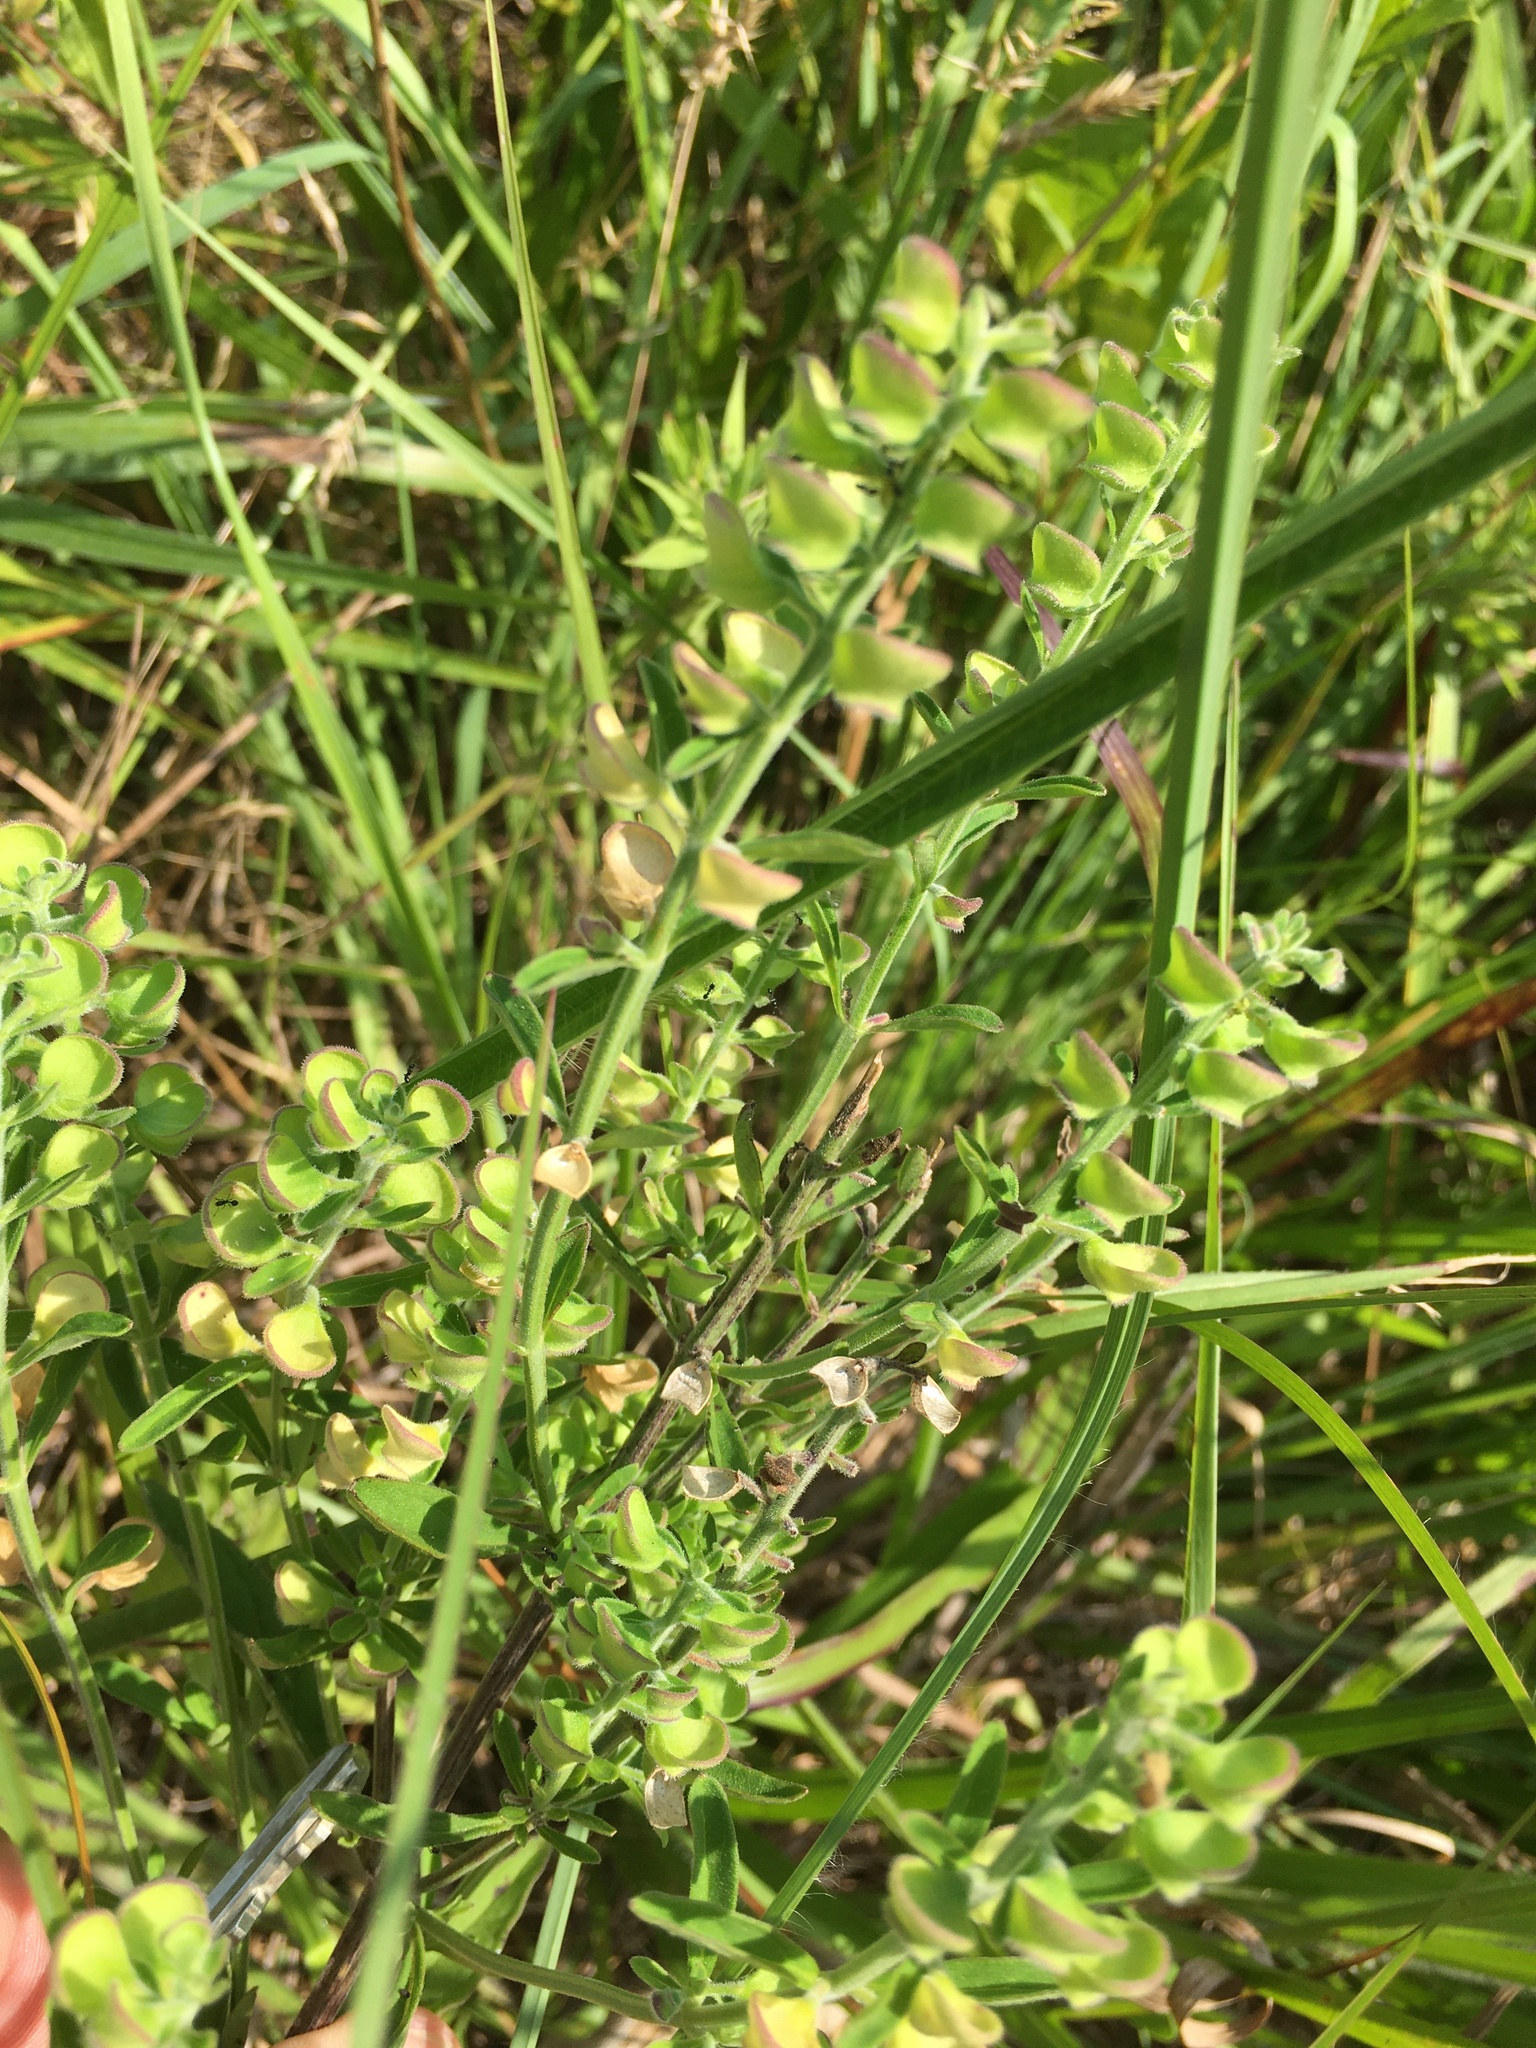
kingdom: Plantae
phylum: Tracheophyta
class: Magnoliopsida
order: Lamiales
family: Lamiaceae
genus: Scutellaria
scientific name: Scutellaria integrifolia
